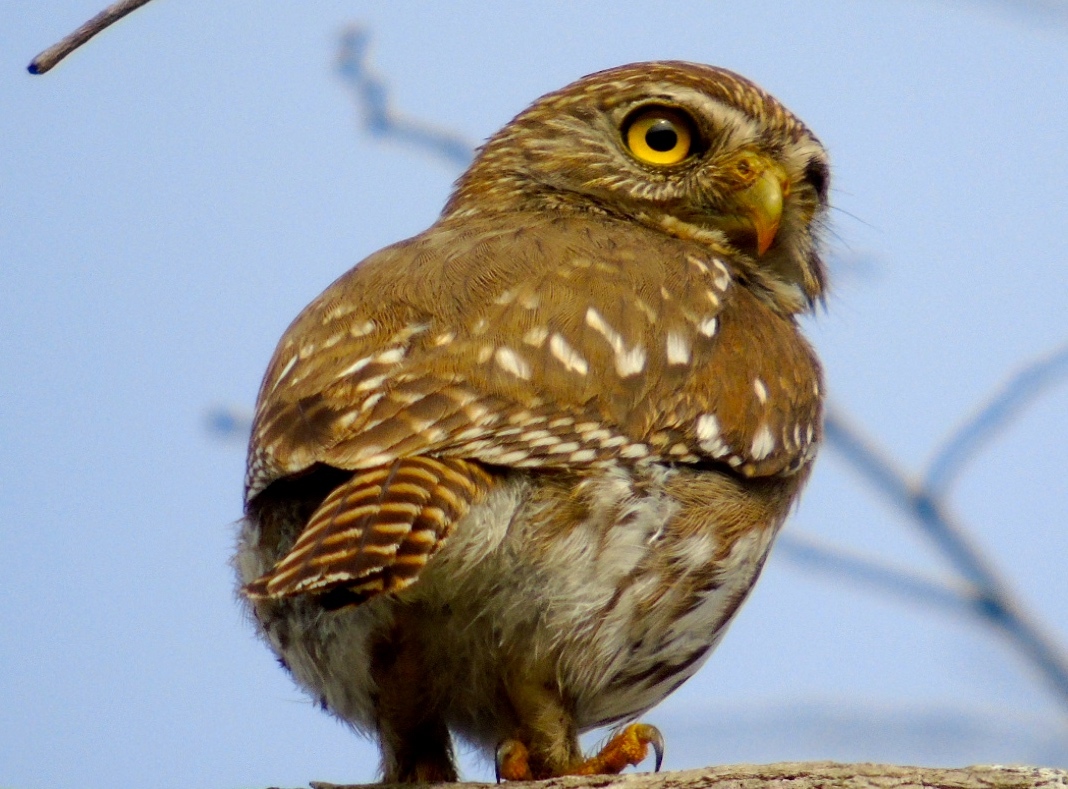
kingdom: Animalia
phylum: Chordata
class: Aves
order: Strigiformes
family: Strigidae
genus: Glaucidium
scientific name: Glaucidium brasilianum
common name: Ferruginous pygmy-owl
